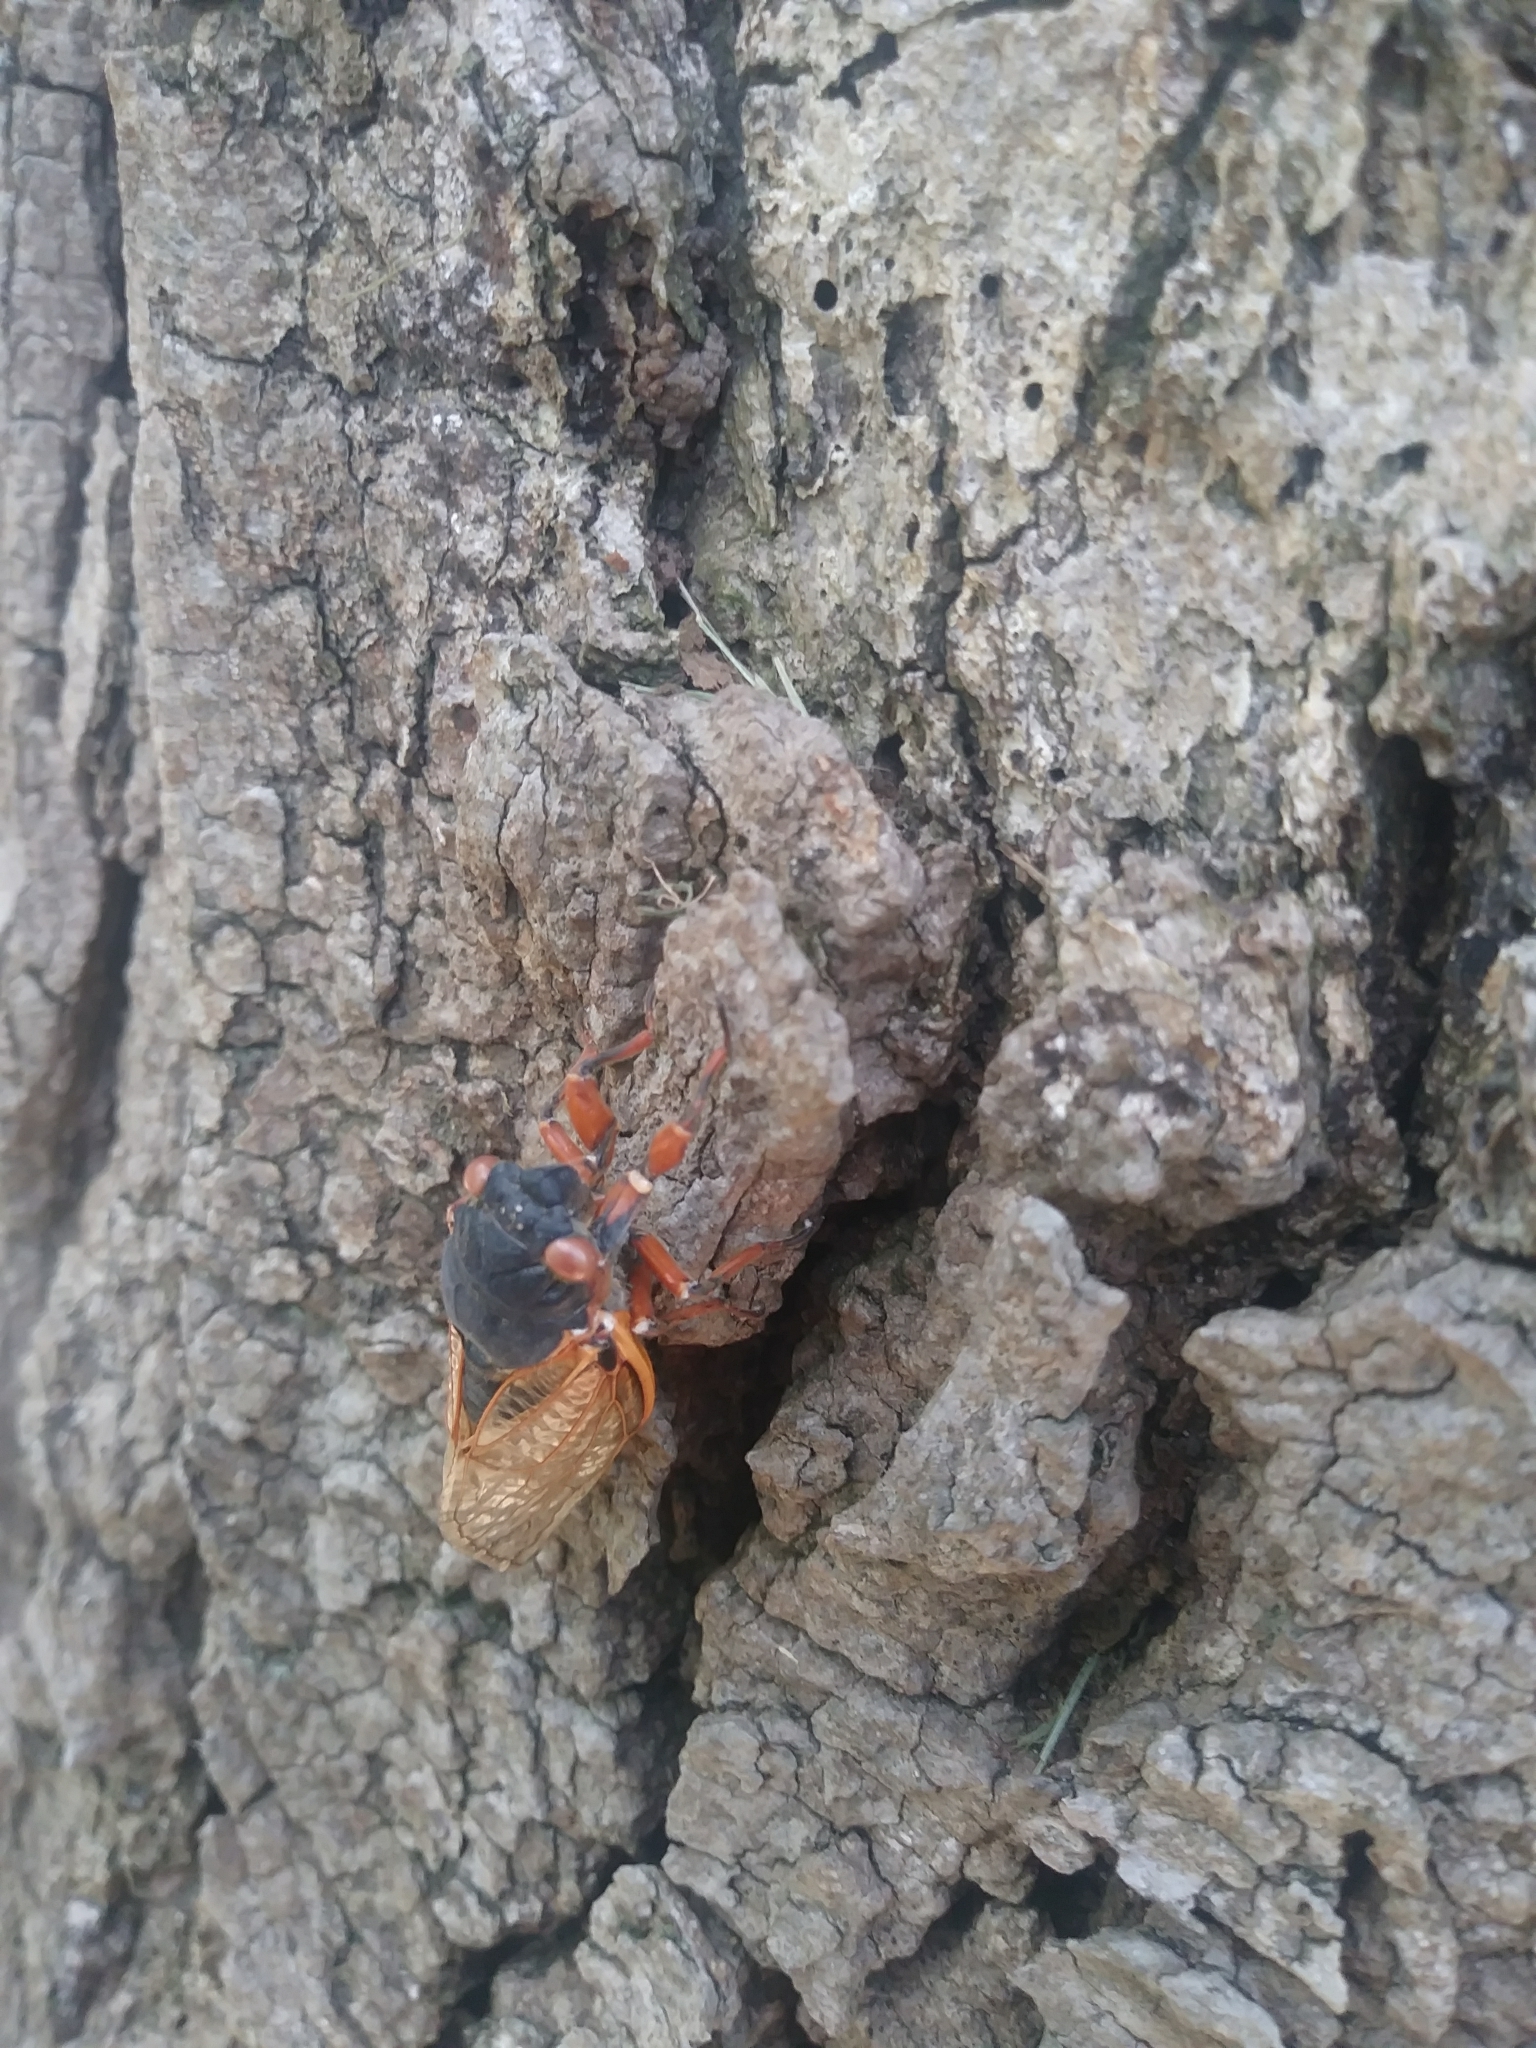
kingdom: Animalia
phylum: Arthropoda
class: Insecta
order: Hemiptera
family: Cicadidae
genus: Magicicada
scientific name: Magicicada septendecim
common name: Periodical cicada
